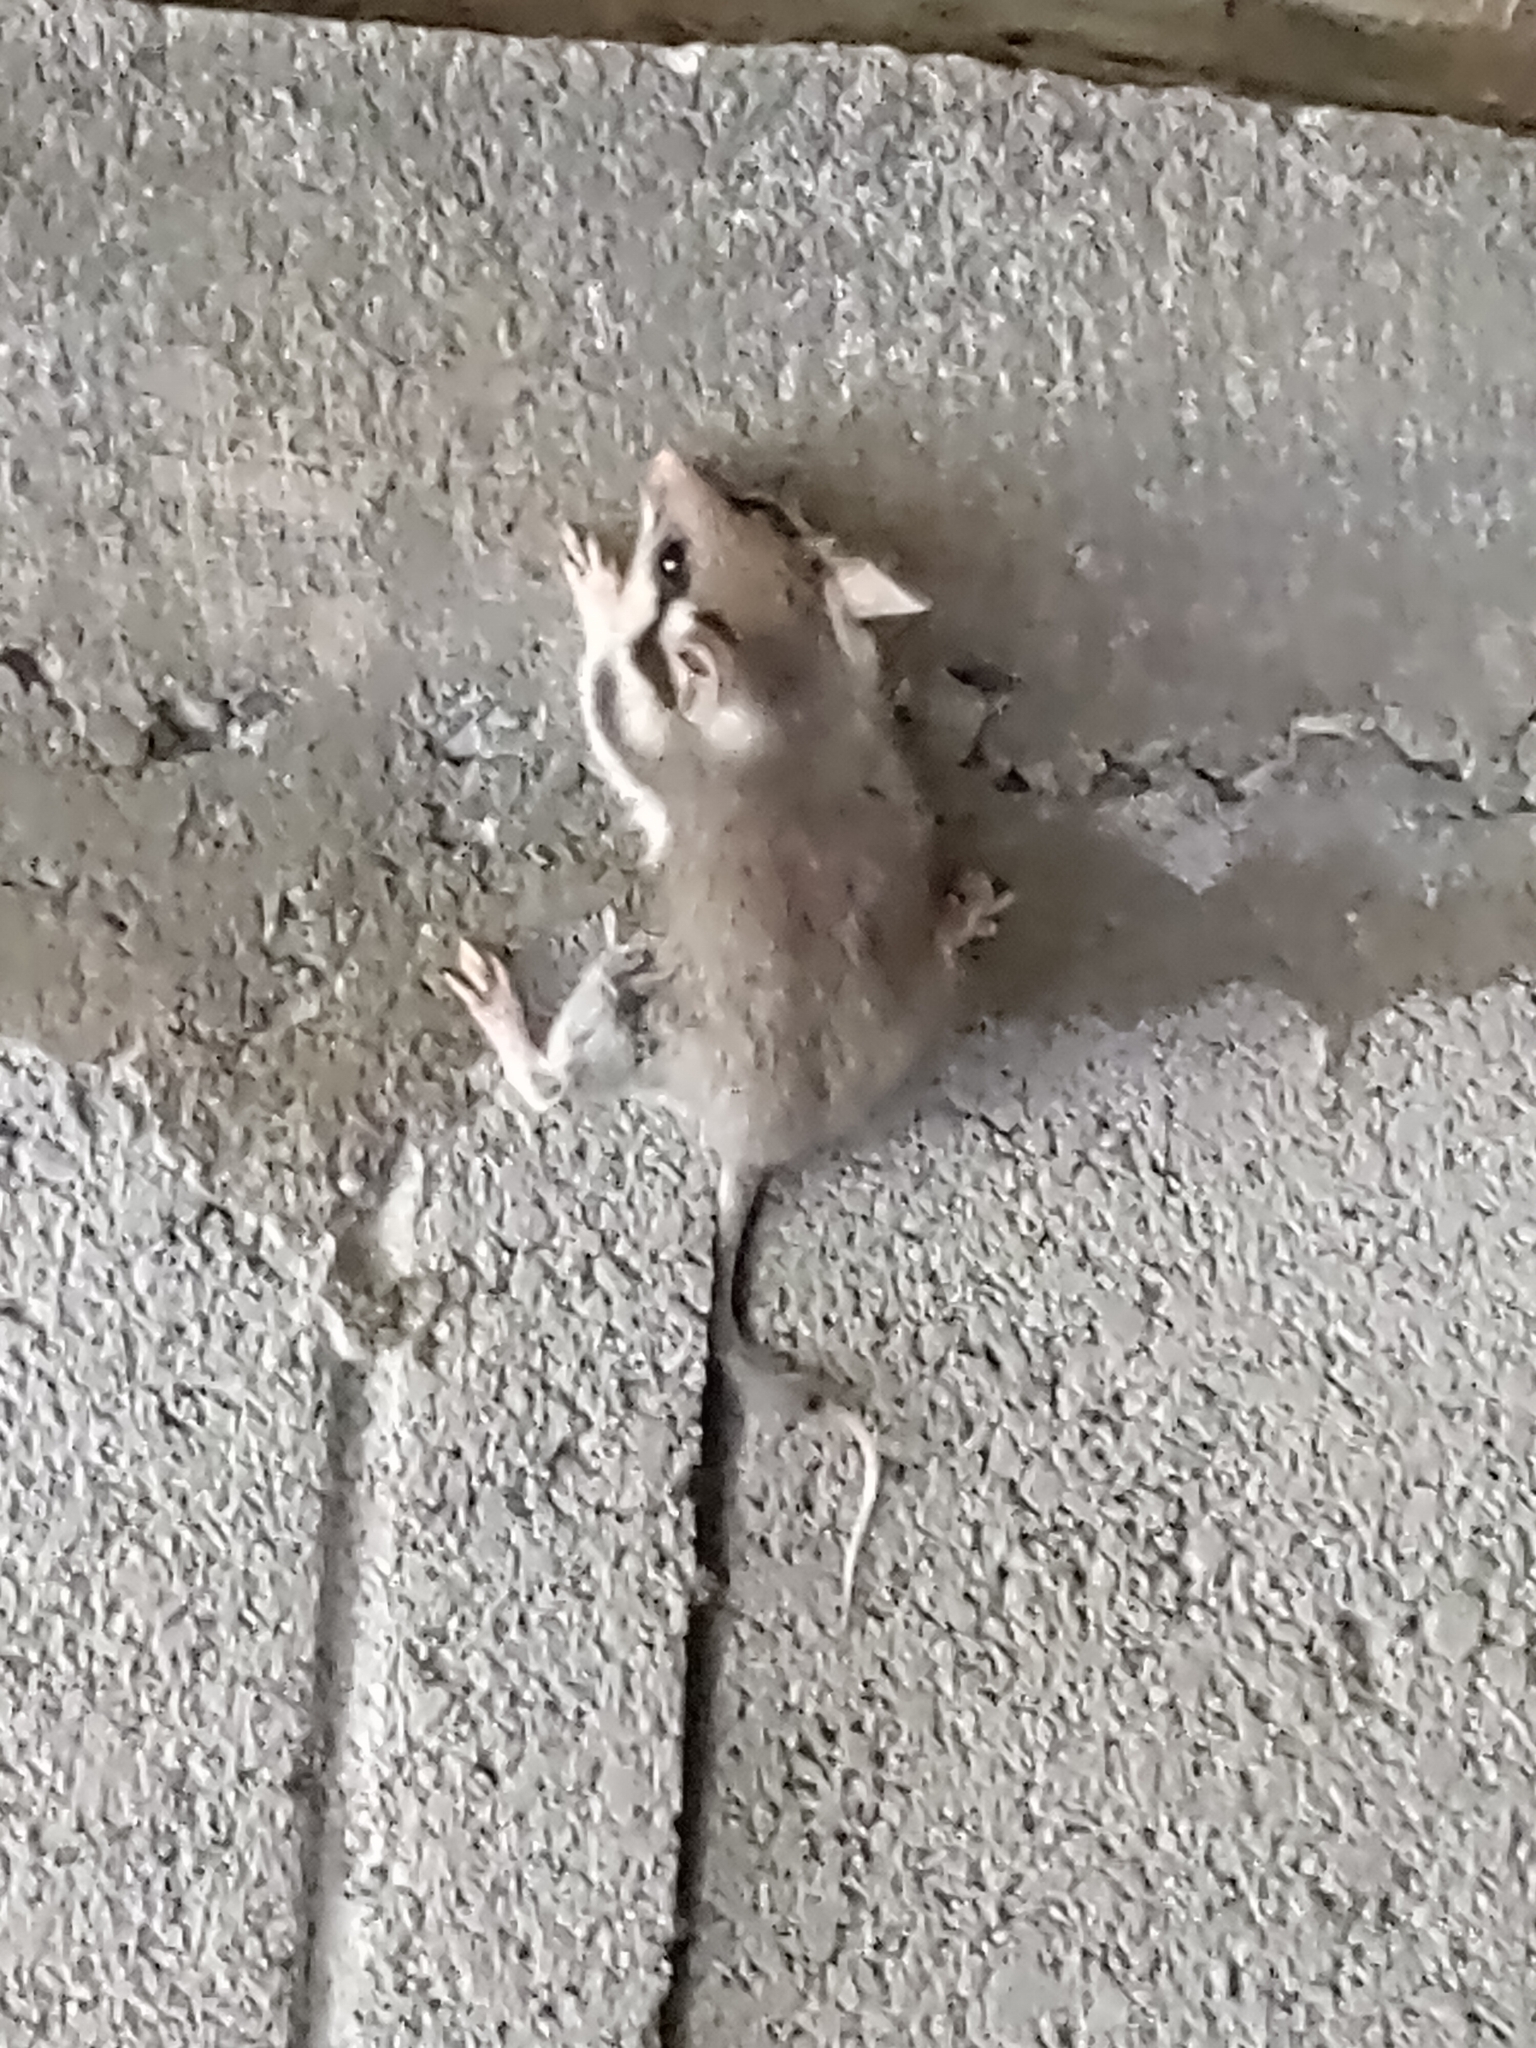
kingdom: Animalia
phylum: Chordata
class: Mammalia
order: Rodentia
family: Gliridae
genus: Eliomys
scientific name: Eliomys quercinus
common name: Garden dormouse
